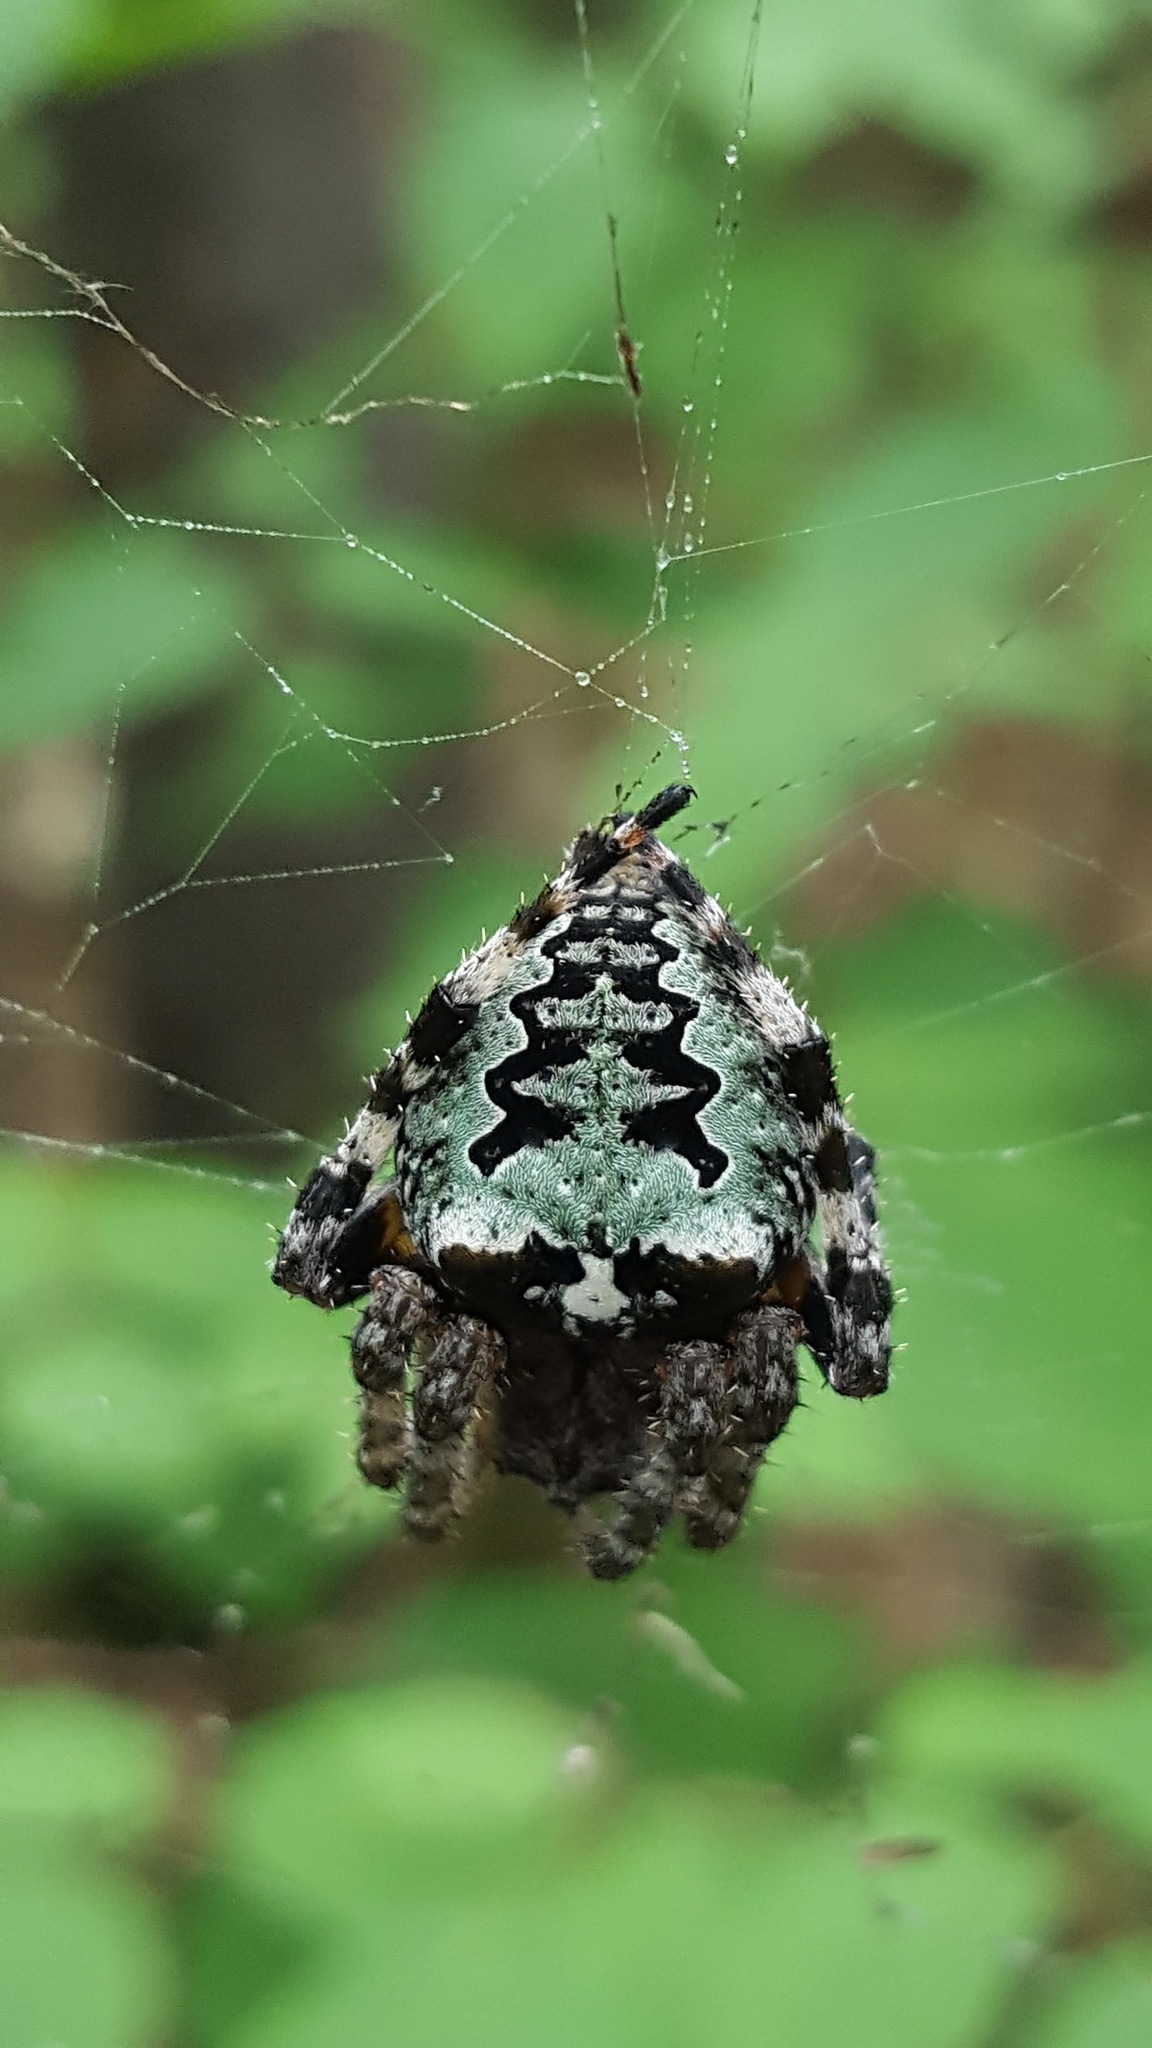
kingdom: Animalia
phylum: Arthropoda
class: Arachnida
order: Araneae
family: Araneidae
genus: Araneus
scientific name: Araneus bicentenarius
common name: Giant lichen orbweaver
